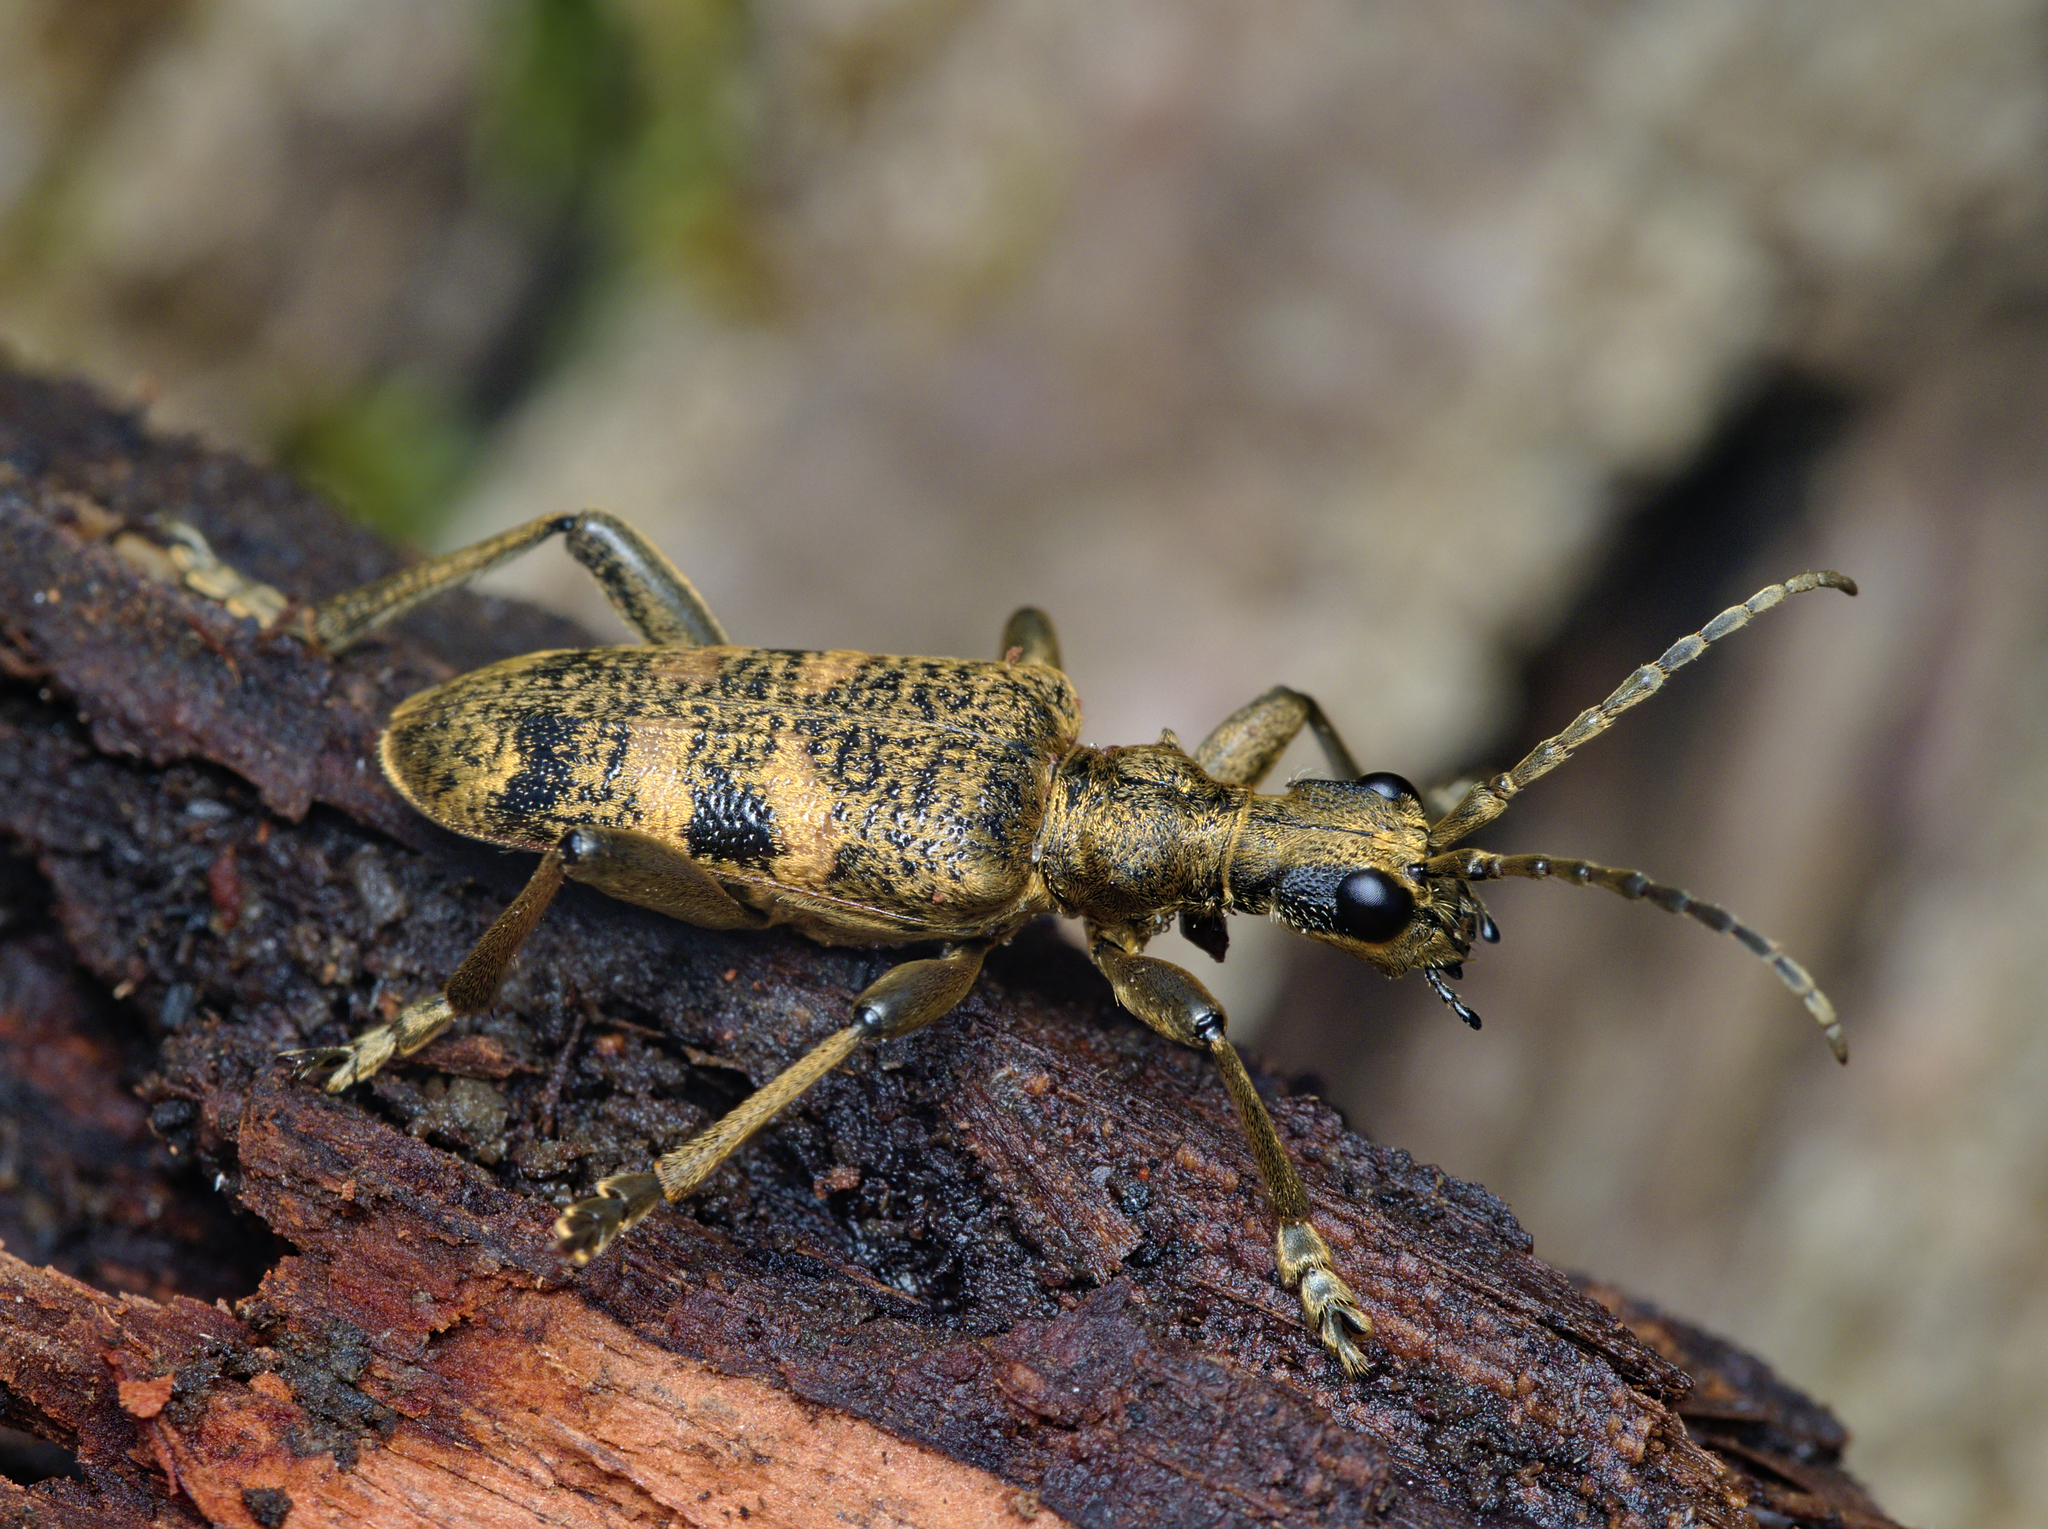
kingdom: Animalia
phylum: Arthropoda
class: Insecta
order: Coleoptera
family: Cerambycidae
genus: Rhagium
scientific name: Rhagium mordax
